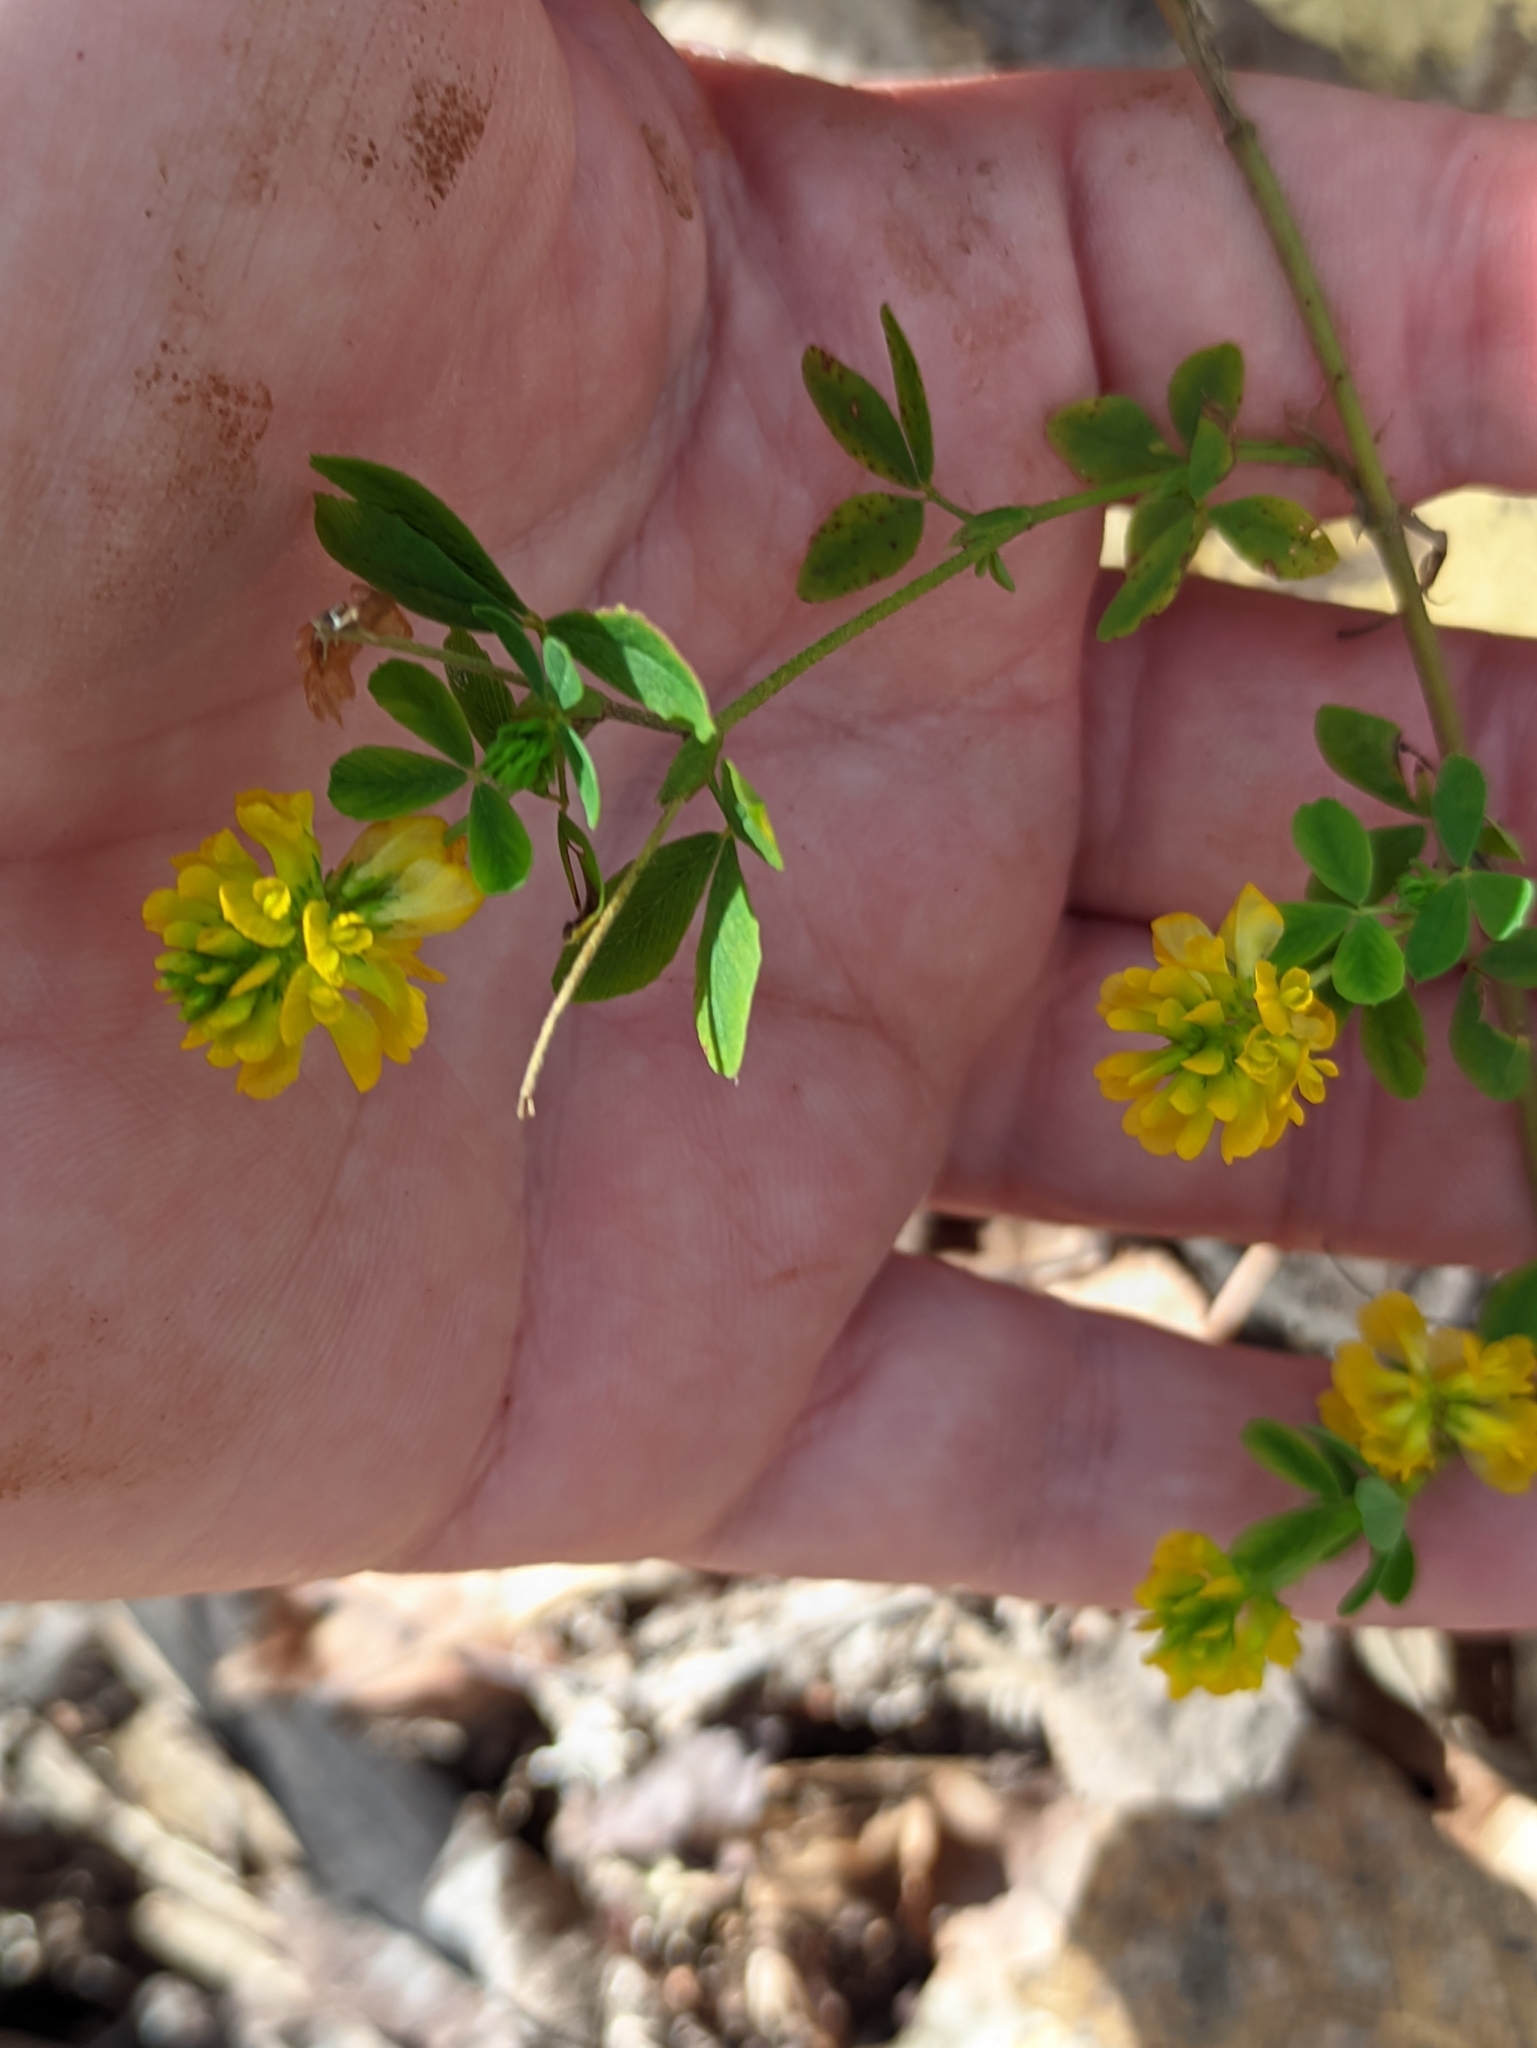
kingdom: Plantae
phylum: Tracheophyta
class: Magnoliopsida
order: Fabales
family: Fabaceae
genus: Trifolium
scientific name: Trifolium aureum
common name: Golden clover
